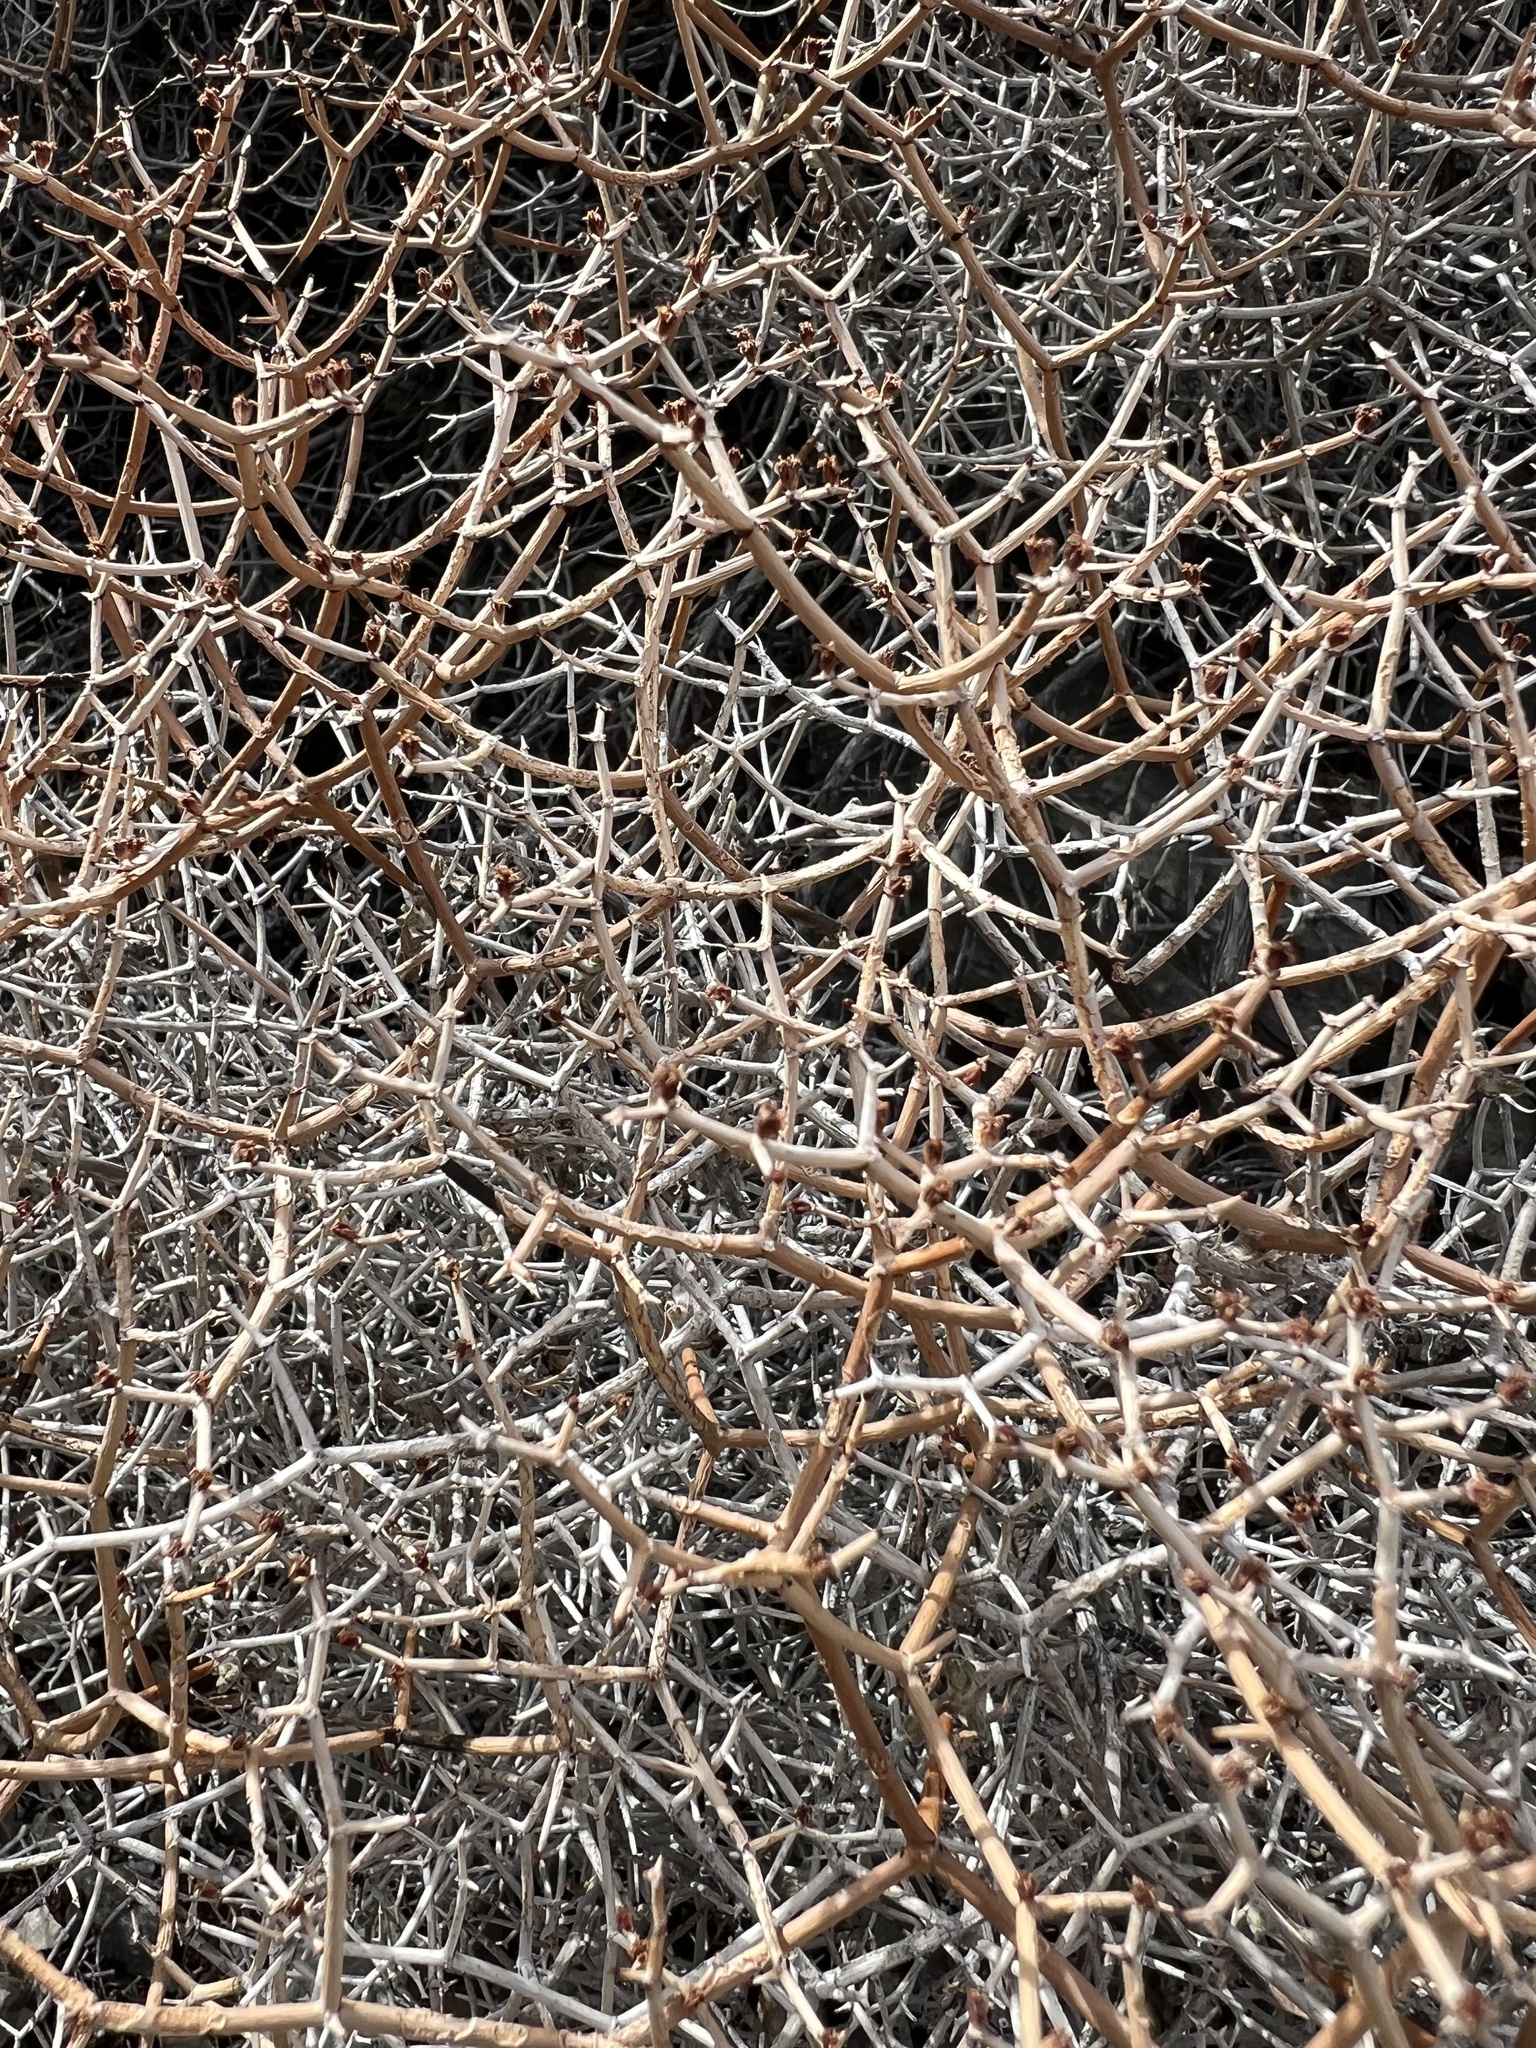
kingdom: Plantae
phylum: Tracheophyta
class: Magnoliopsida
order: Caryophyllales
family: Polygonaceae
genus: Eriogonum
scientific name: Eriogonum heermannii
